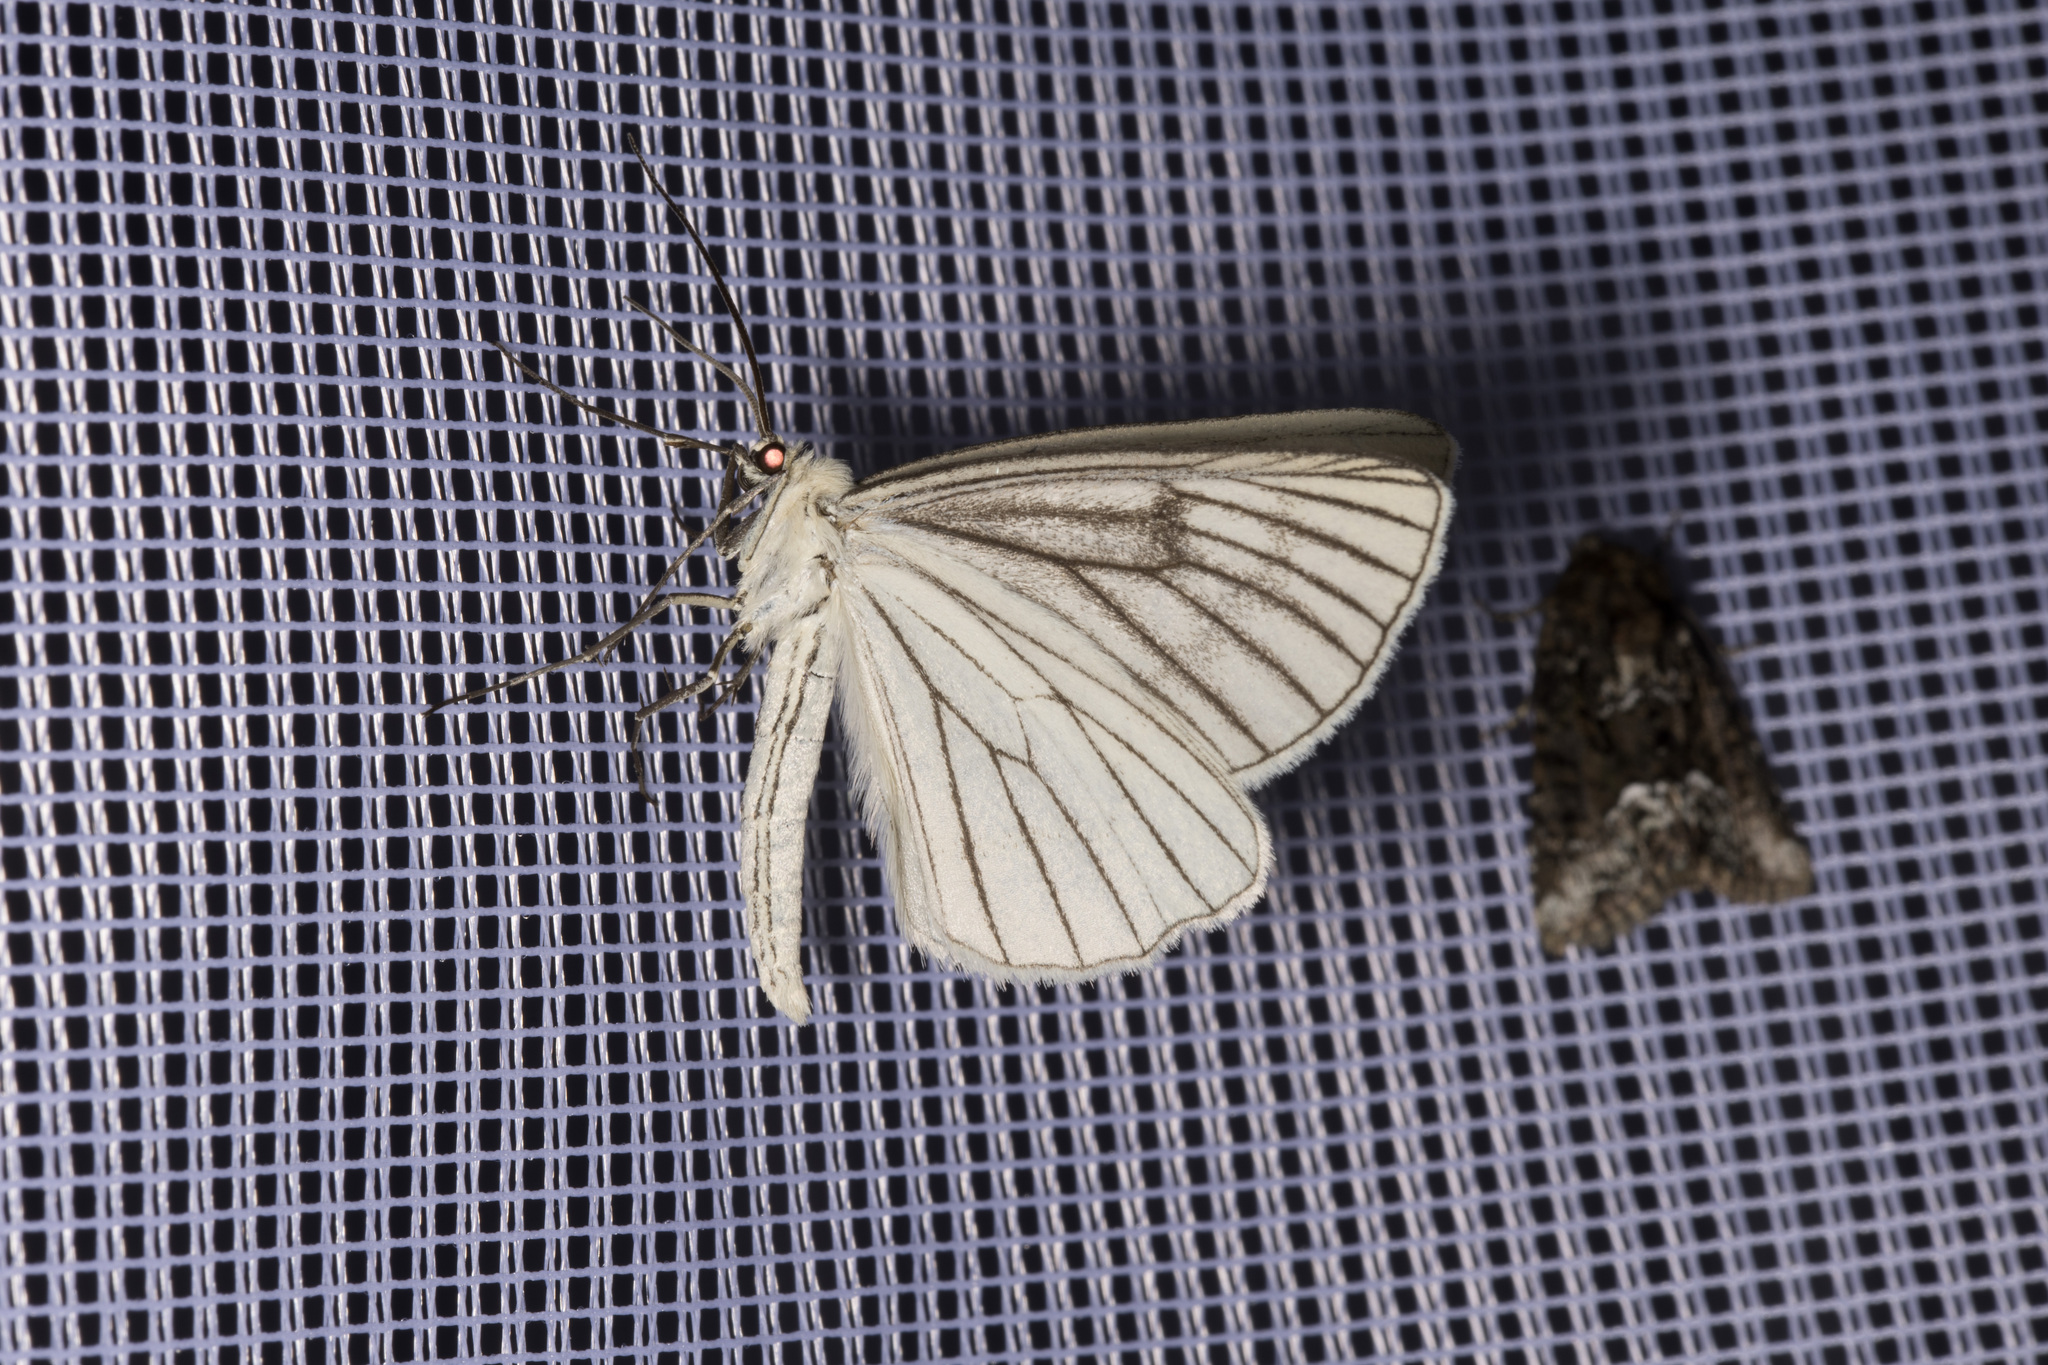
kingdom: Animalia
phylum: Arthropoda
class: Insecta
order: Lepidoptera
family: Geometridae
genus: Siona
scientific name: Siona lineata
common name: Black-veined moth
